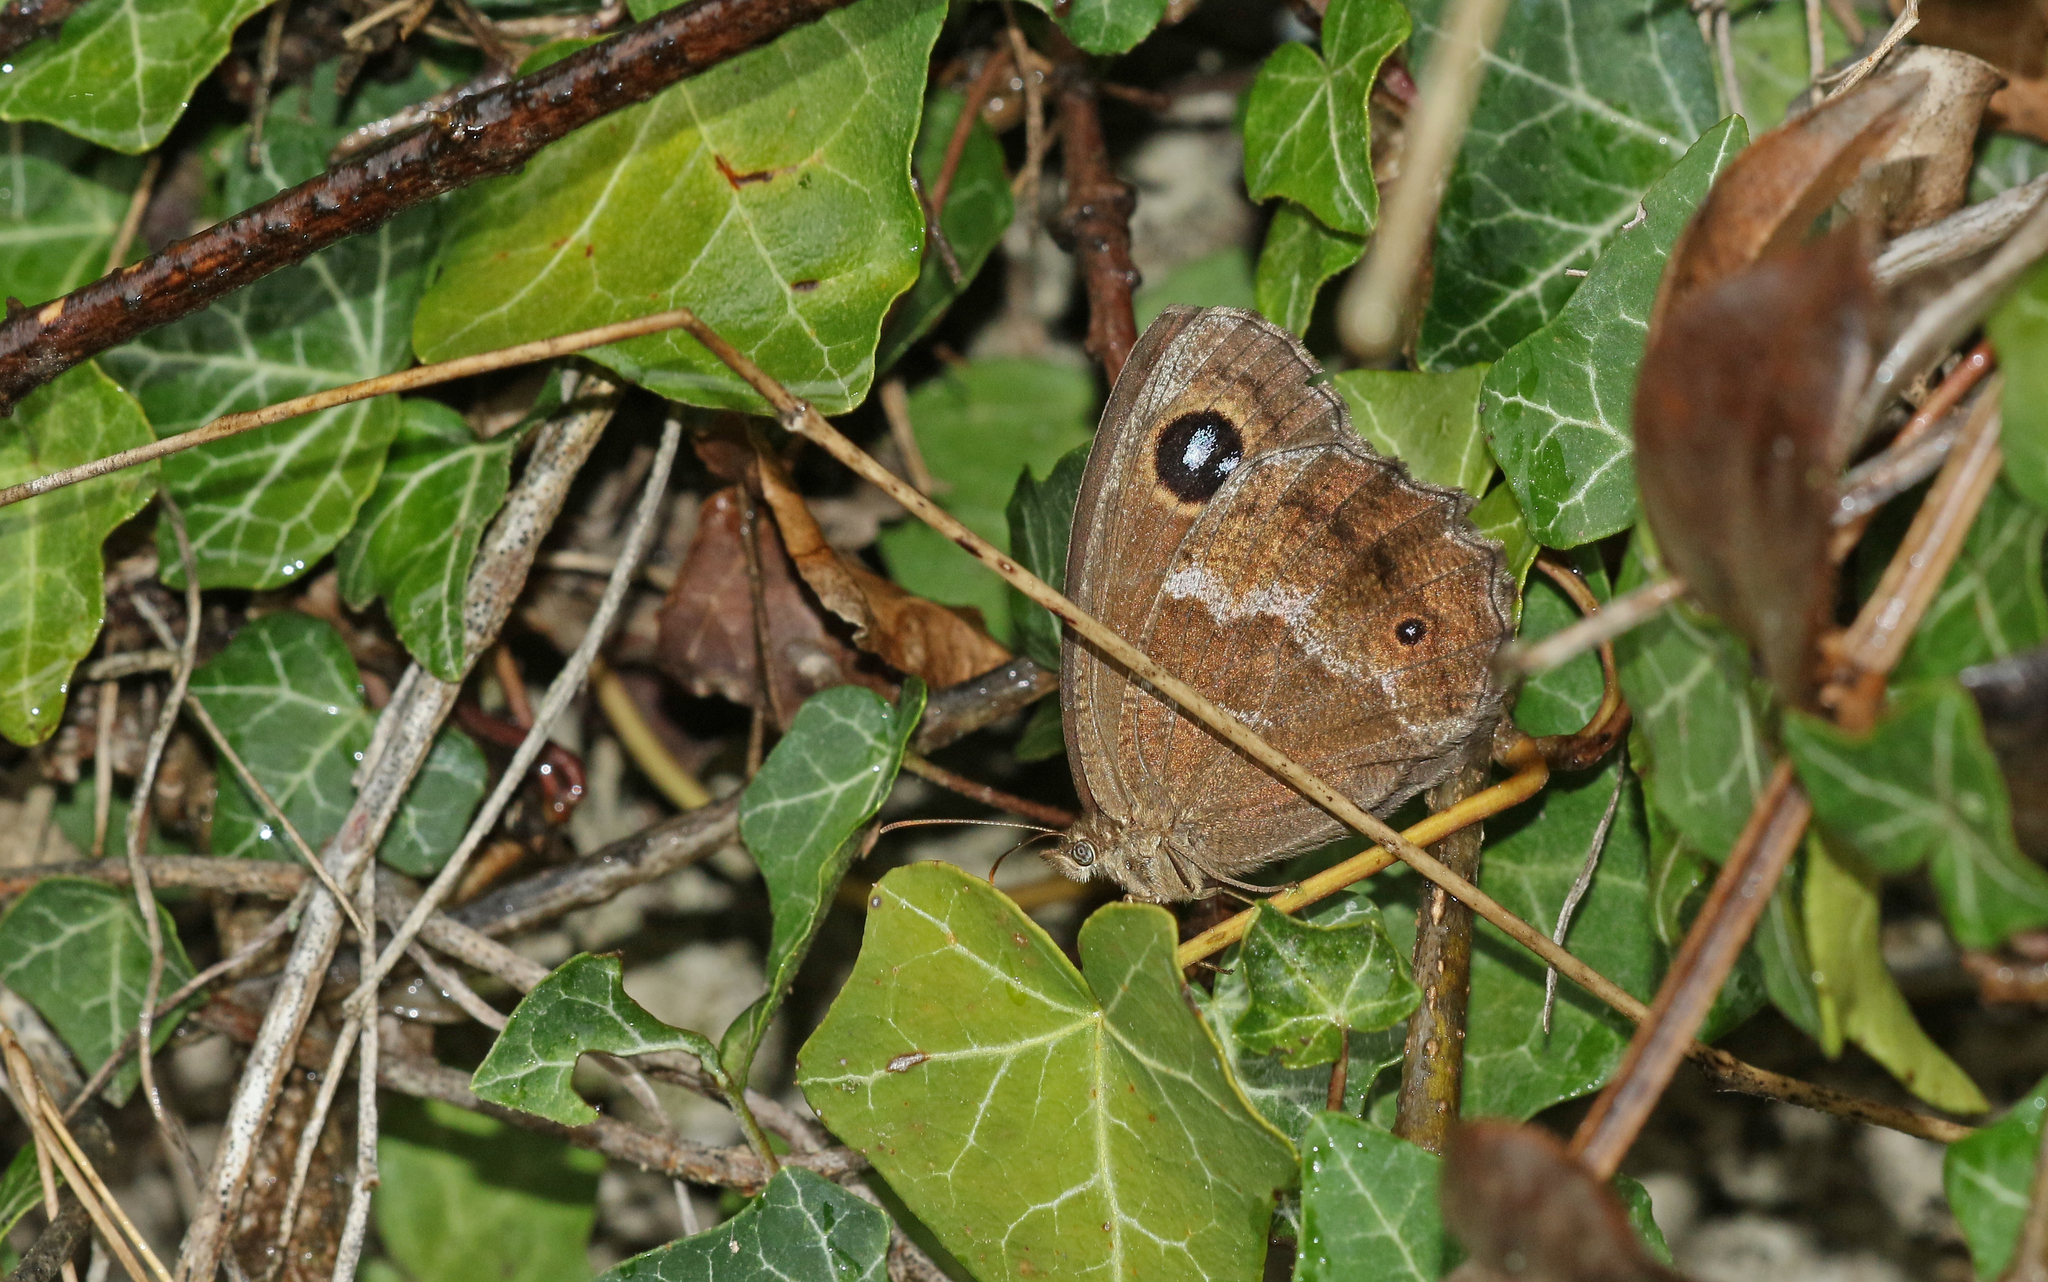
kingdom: Animalia
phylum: Arthropoda
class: Insecta
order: Lepidoptera
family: Nymphalidae
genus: Minois
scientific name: Minois dryas
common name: Dryad
